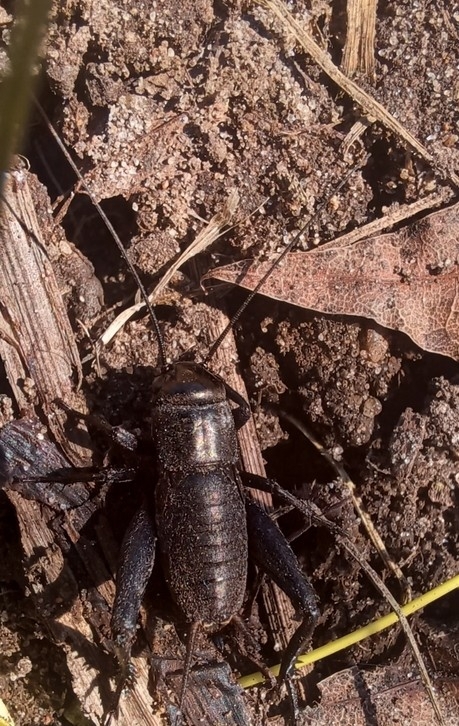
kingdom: Animalia
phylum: Arthropoda
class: Insecta
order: Orthoptera
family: Gryllidae
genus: Gryllus
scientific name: Gryllus veletis
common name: Spring field cricket
